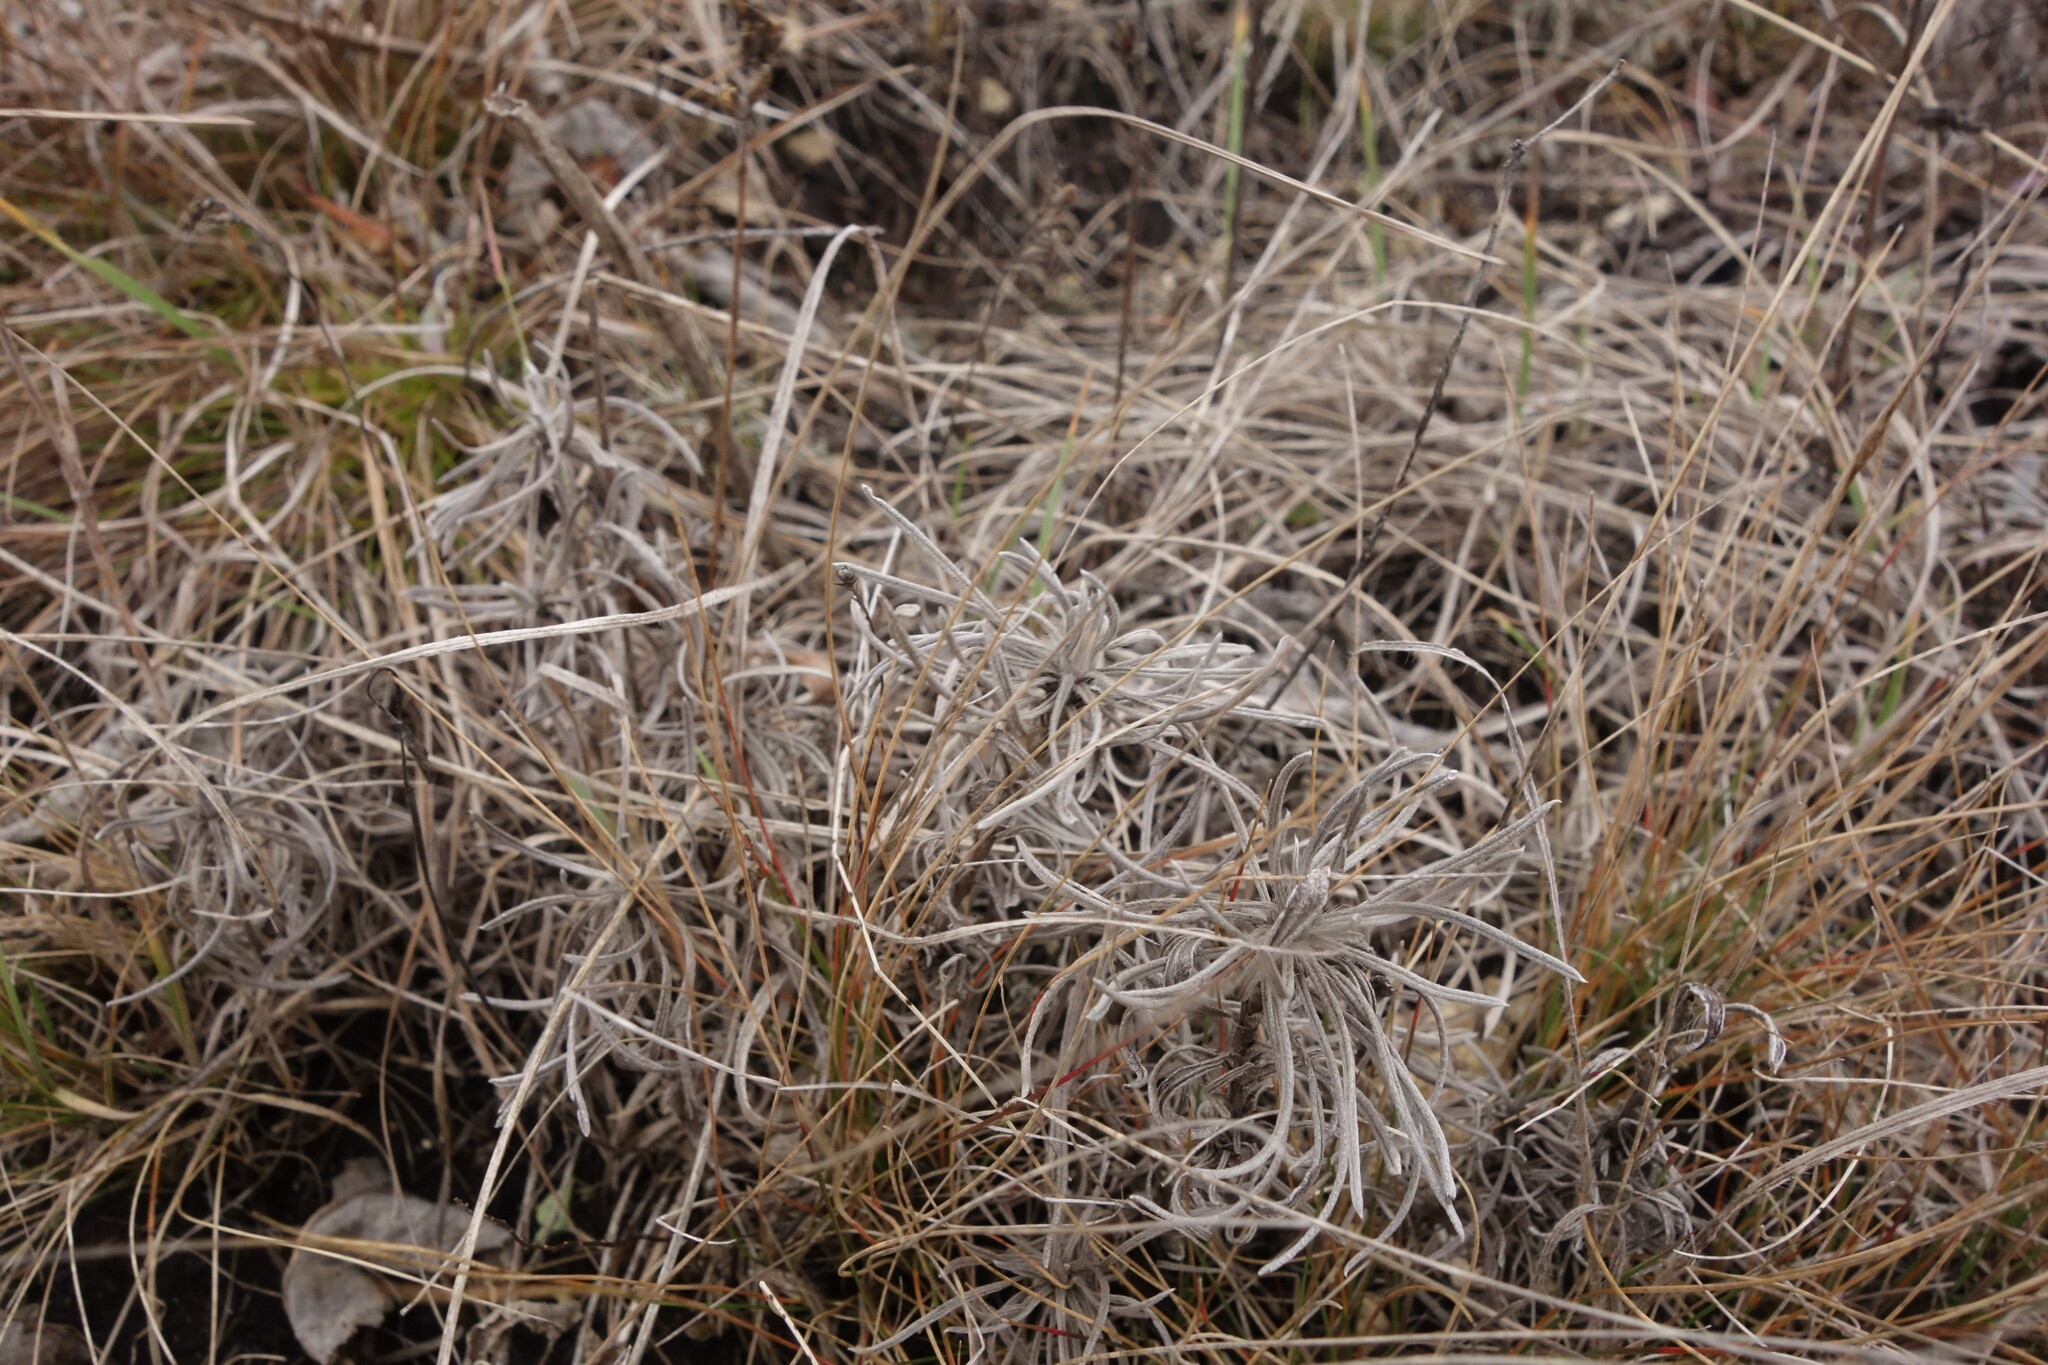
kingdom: Plantae
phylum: Tracheophyta
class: Magnoliopsida
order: Boraginales
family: Boraginaceae
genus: Onosma
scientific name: Onosma simplicissima
